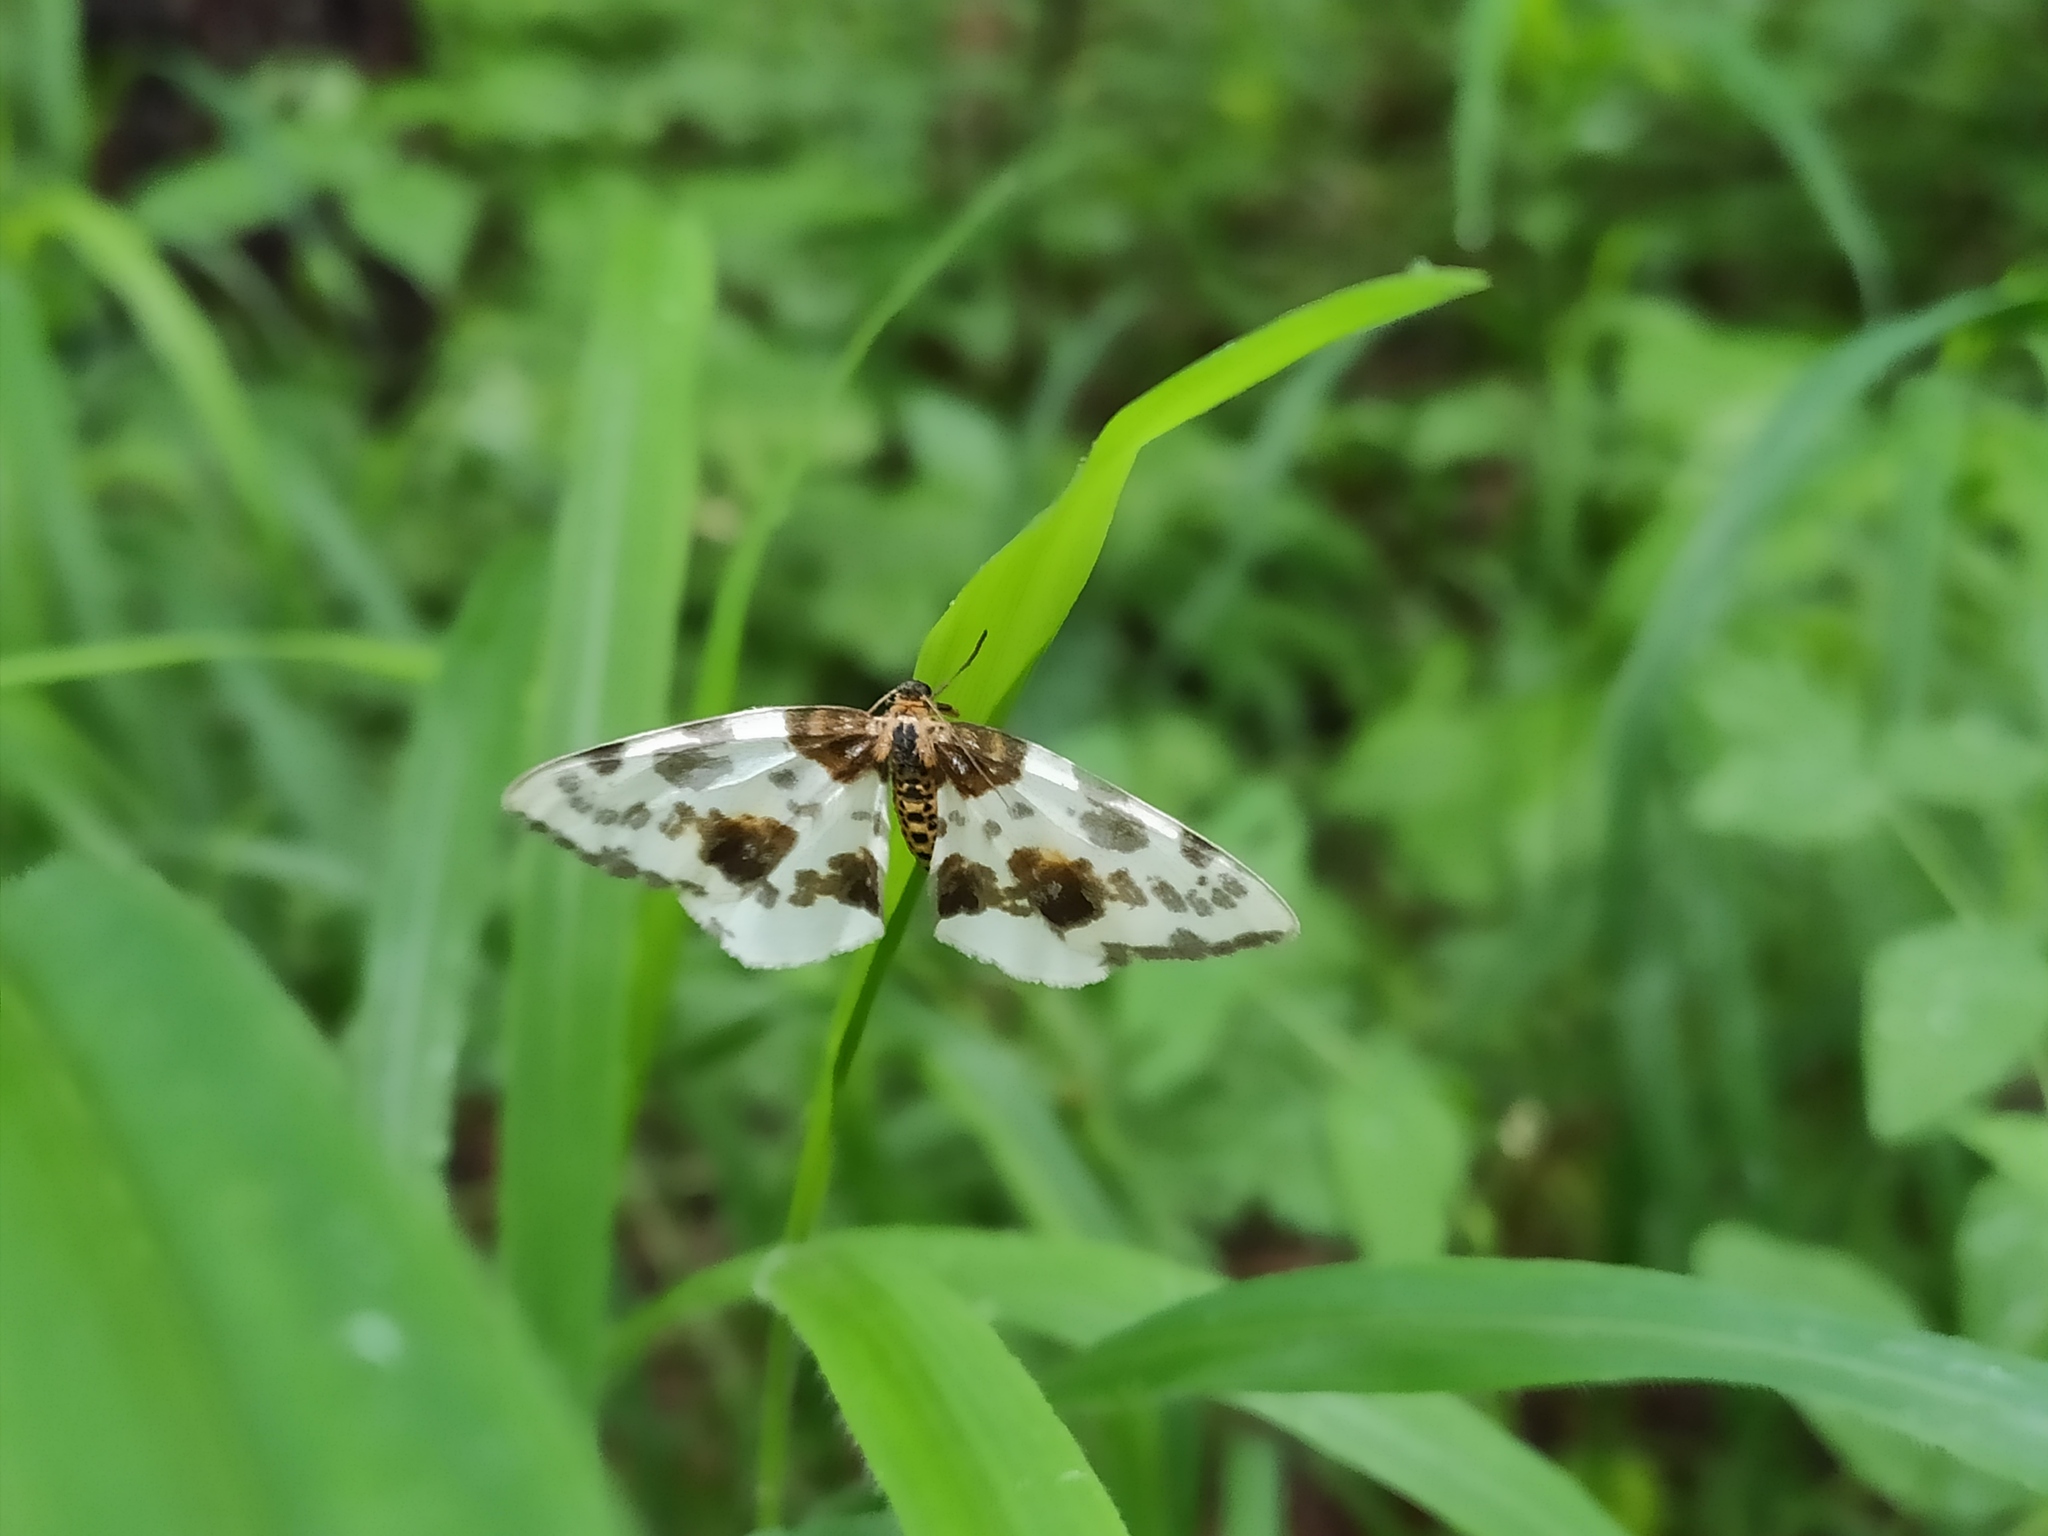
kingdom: Animalia
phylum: Arthropoda
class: Insecta
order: Lepidoptera
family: Geometridae
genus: Abraxas
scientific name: Abraxas sylvata
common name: Clouded magpie
